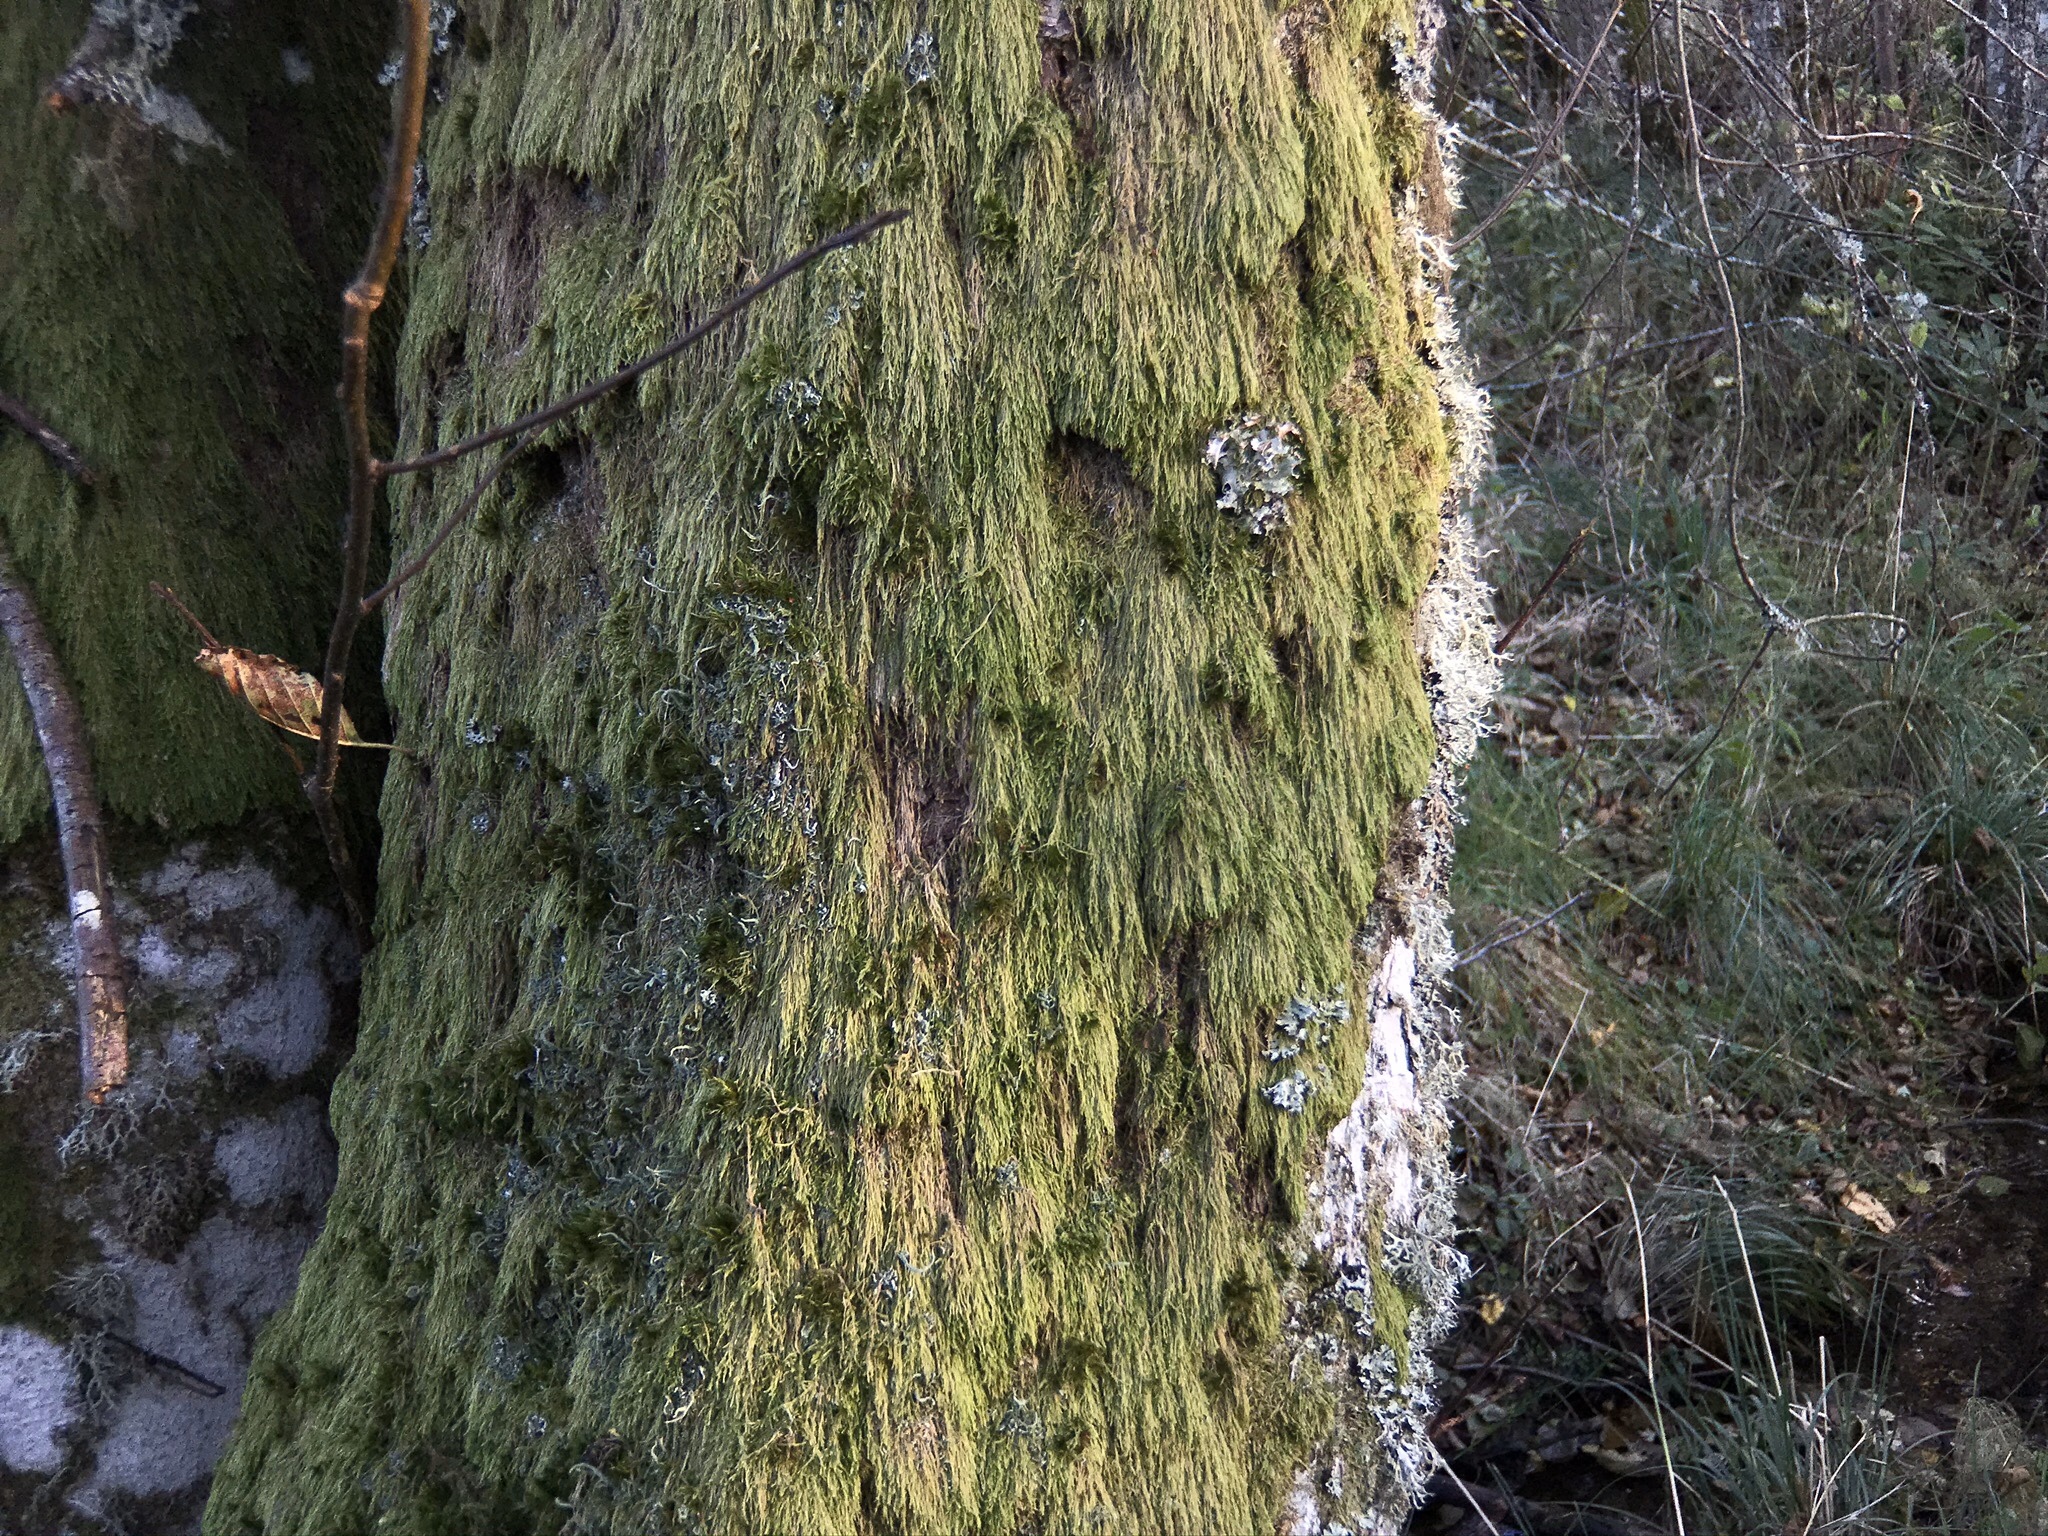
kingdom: Plantae
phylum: Bryophyta
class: Bryopsida
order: Hypnales
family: Hypnaceae
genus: Hypnum
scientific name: Hypnum andoi
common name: Ando's plait moss
